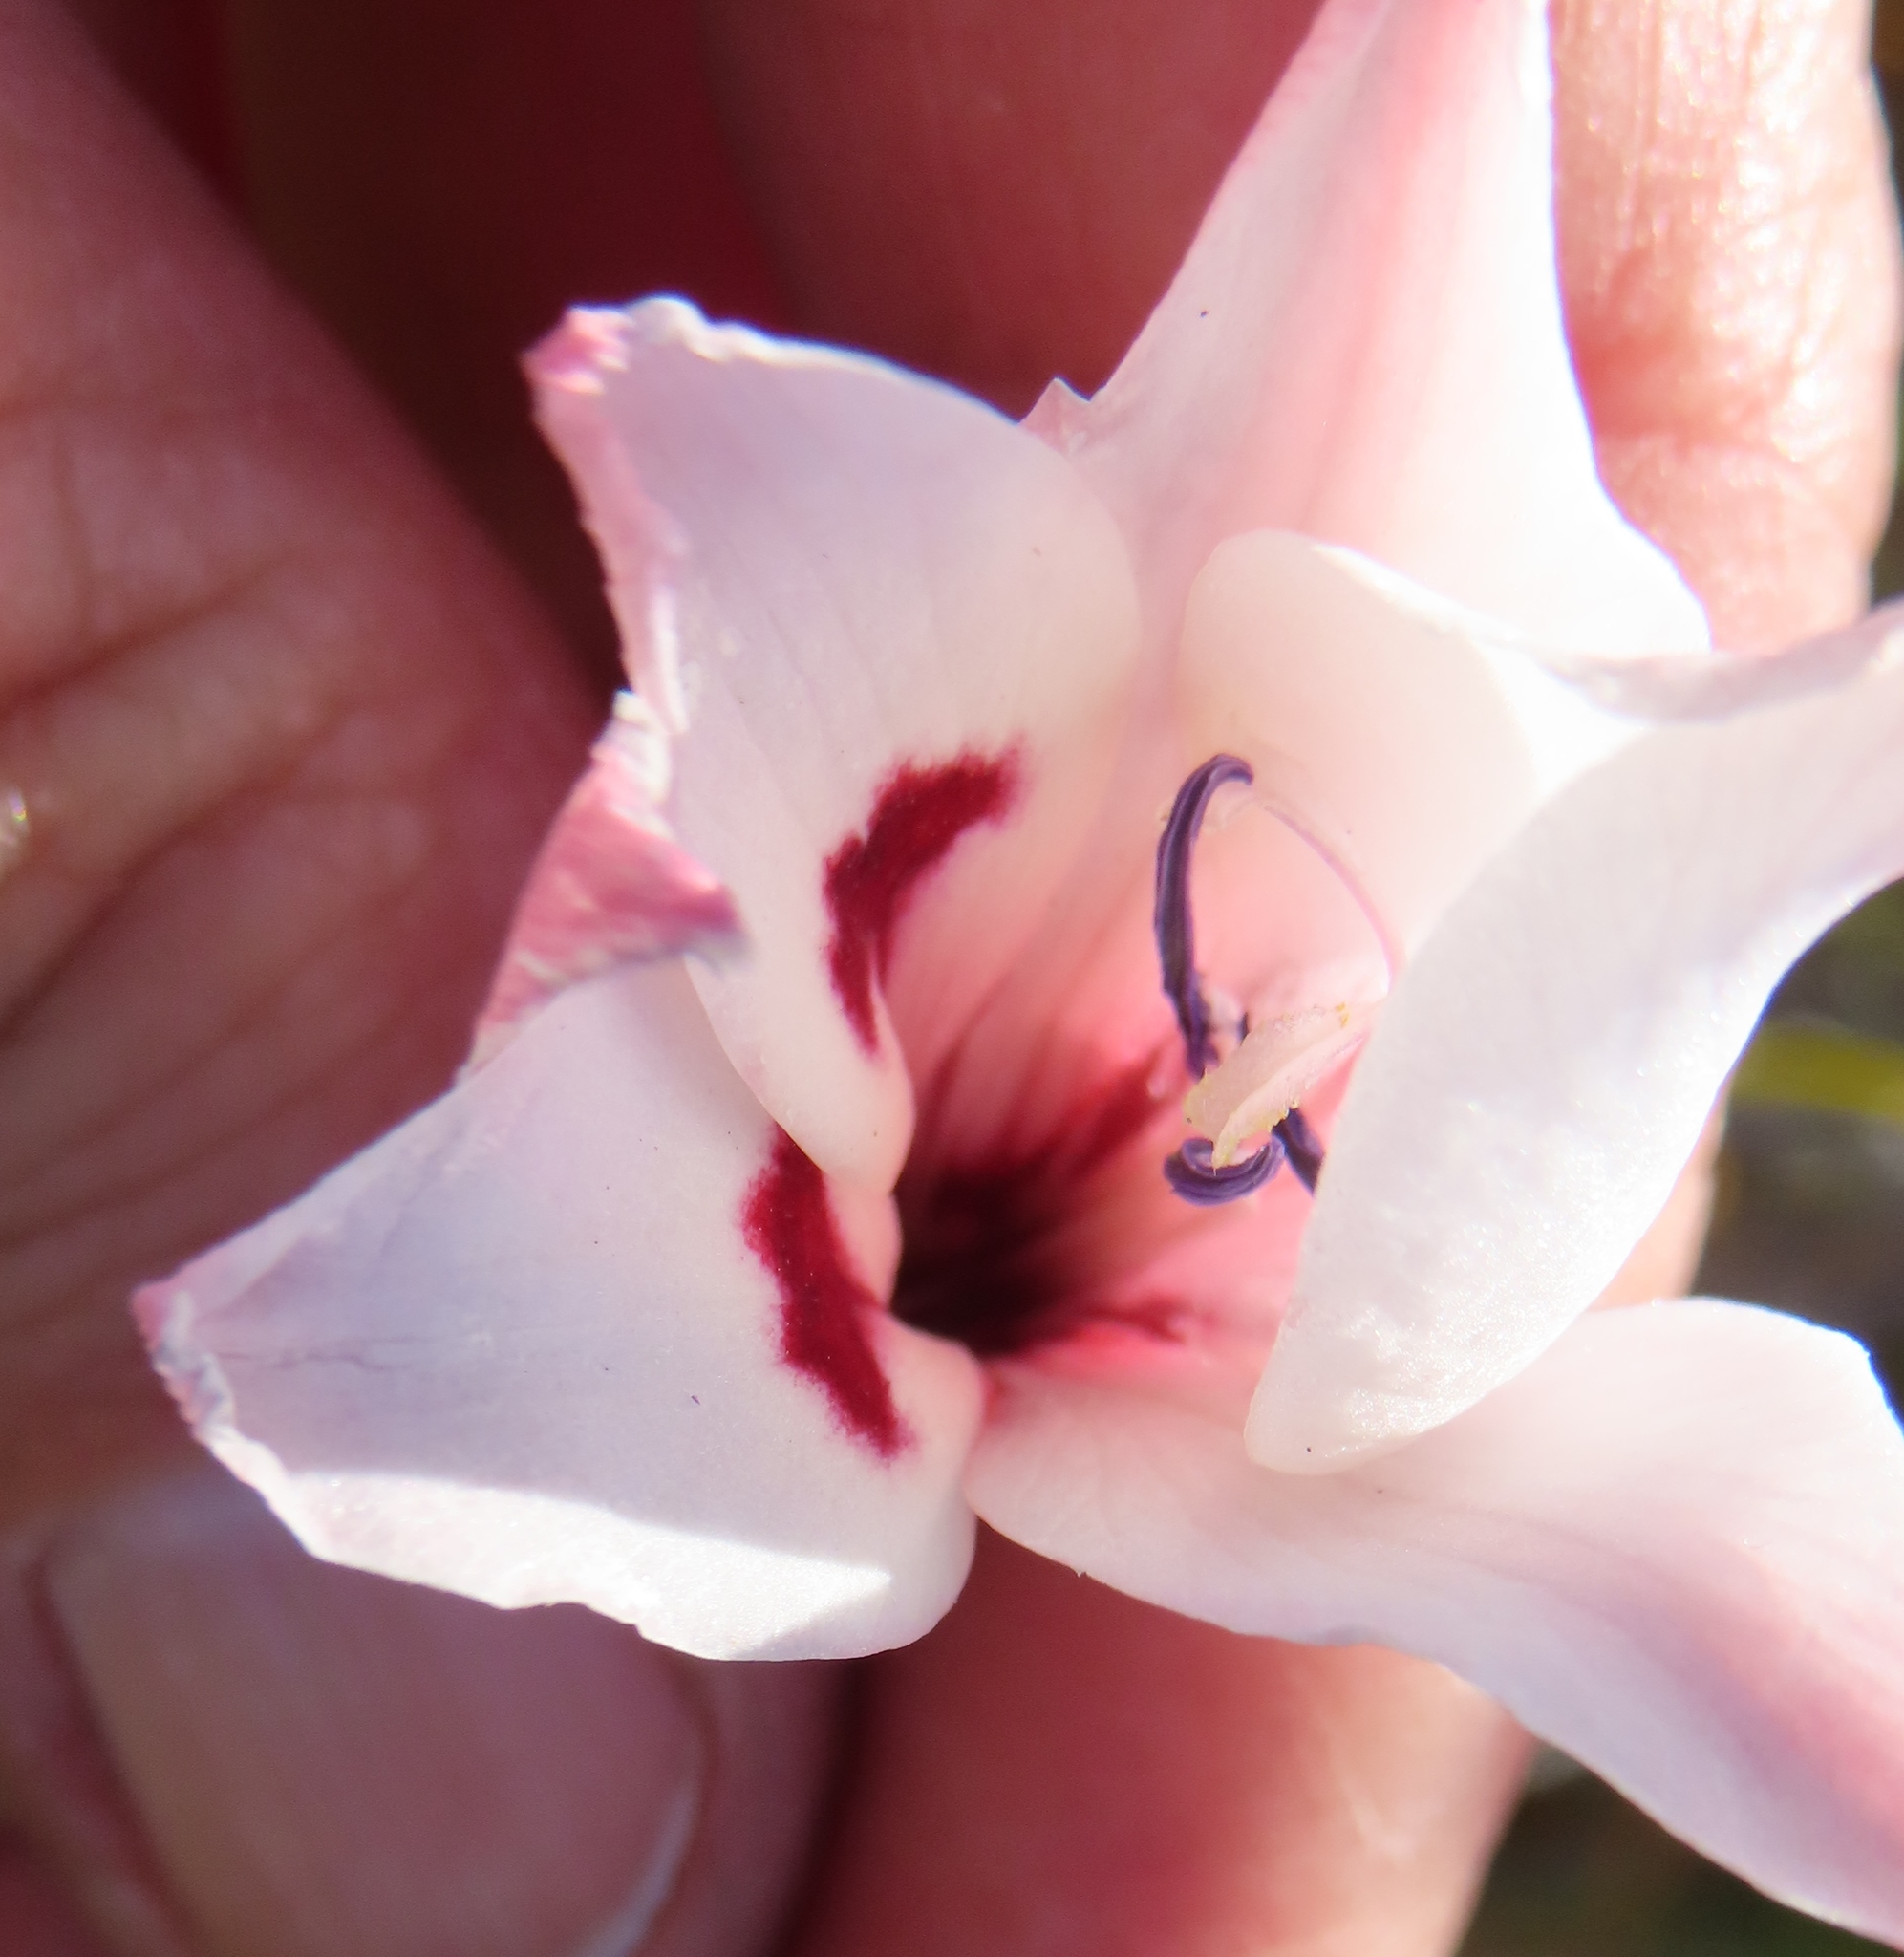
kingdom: Plantae
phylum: Tracheophyta
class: Liliopsida
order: Asparagales
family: Iridaceae
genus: Gladiolus
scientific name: Gladiolus carneus
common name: Painted-lady
